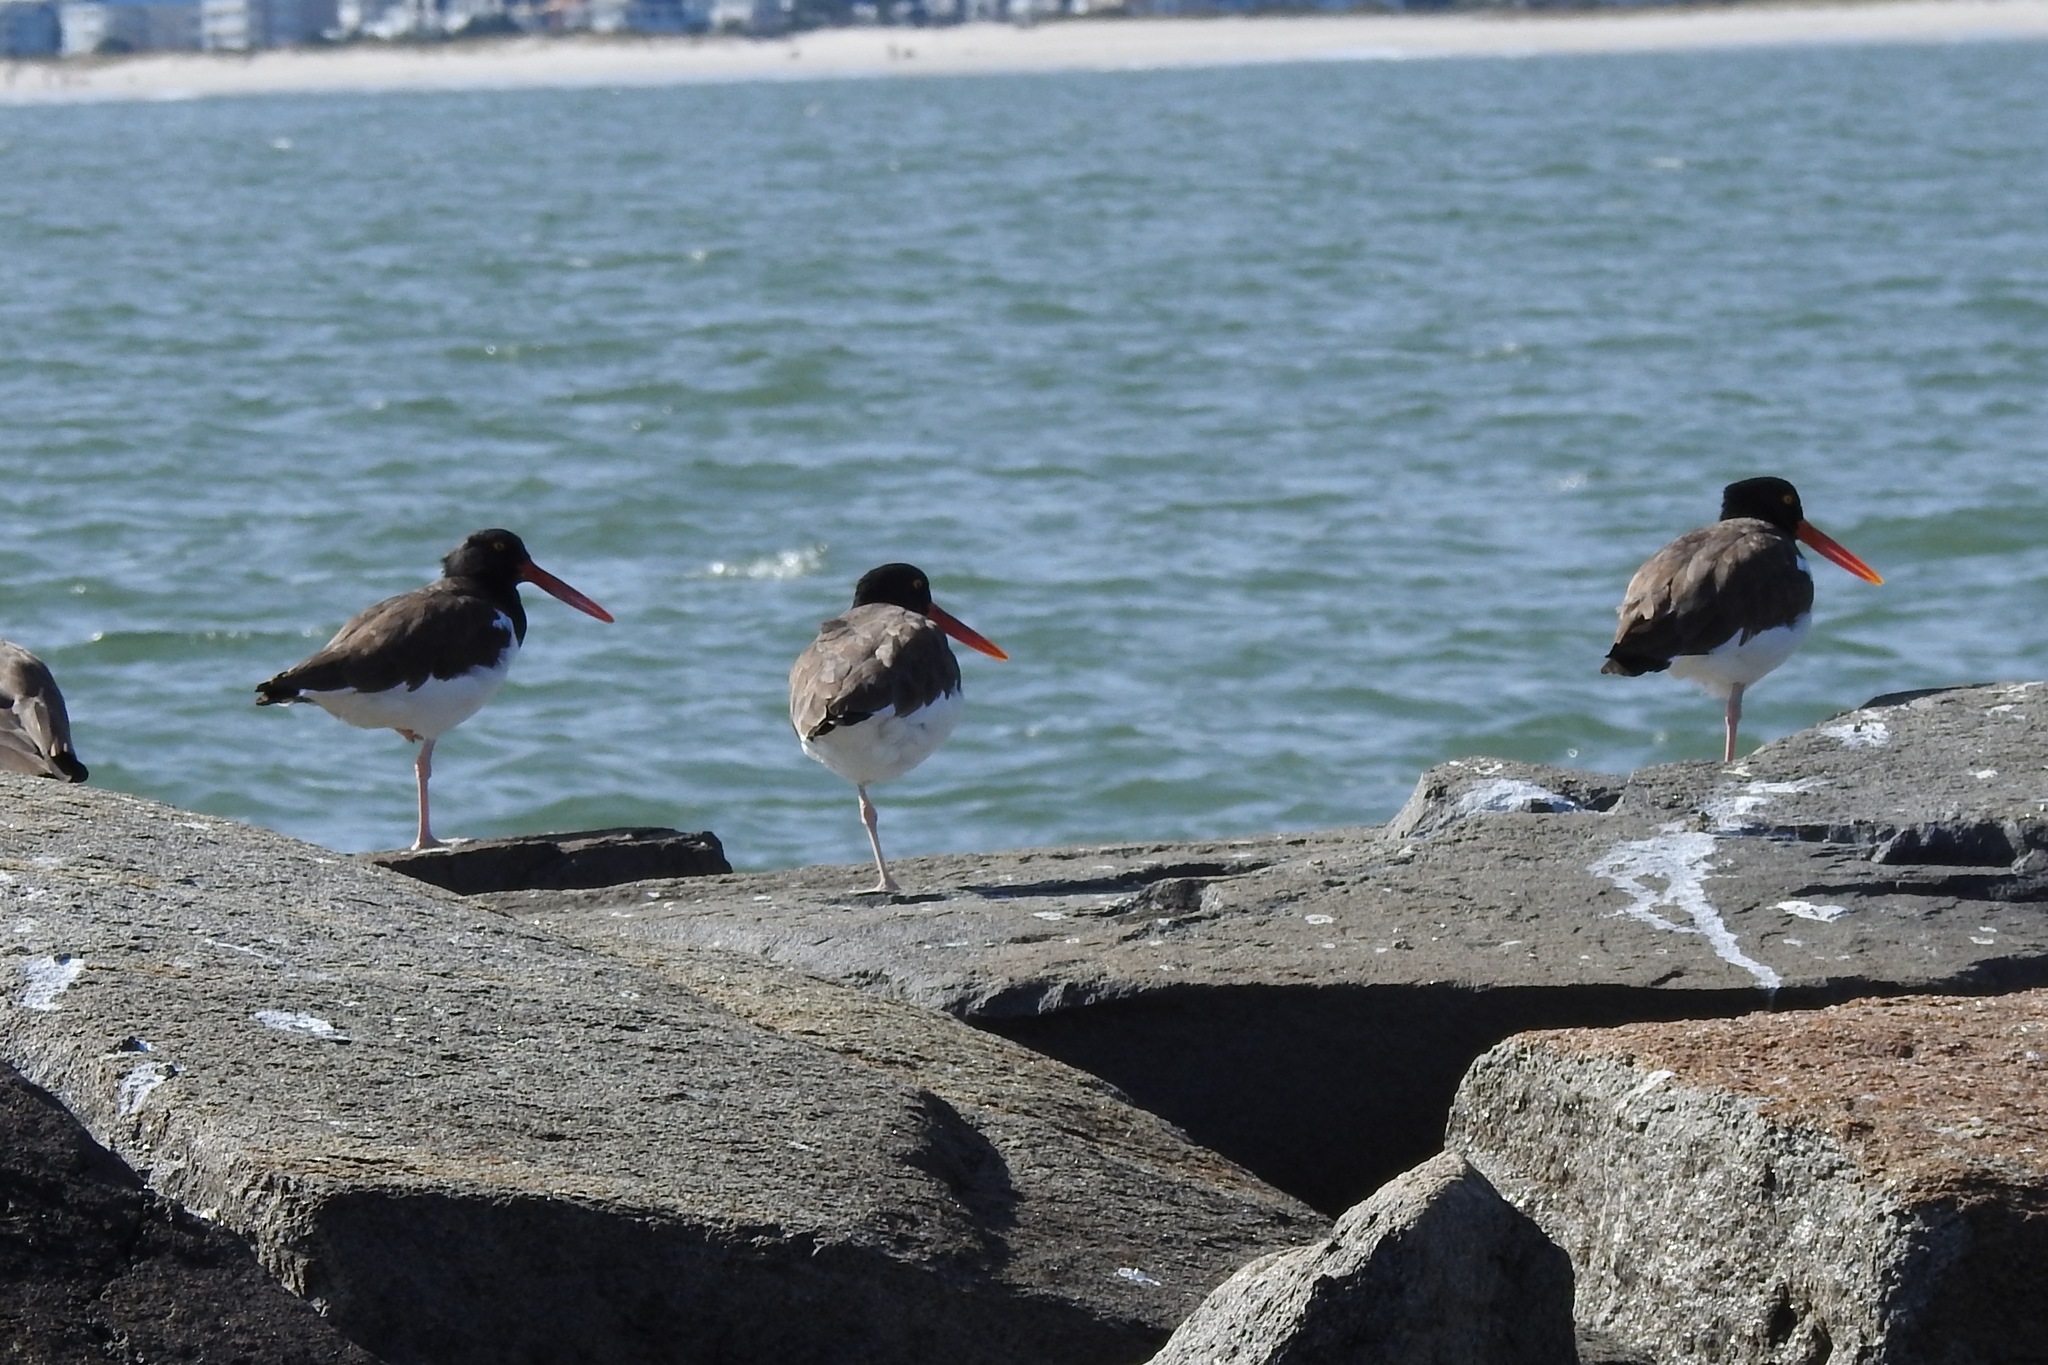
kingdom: Animalia
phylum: Chordata
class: Aves
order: Charadriiformes
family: Haematopodidae
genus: Haematopus
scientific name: Haematopus palliatus
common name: American oystercatcher
